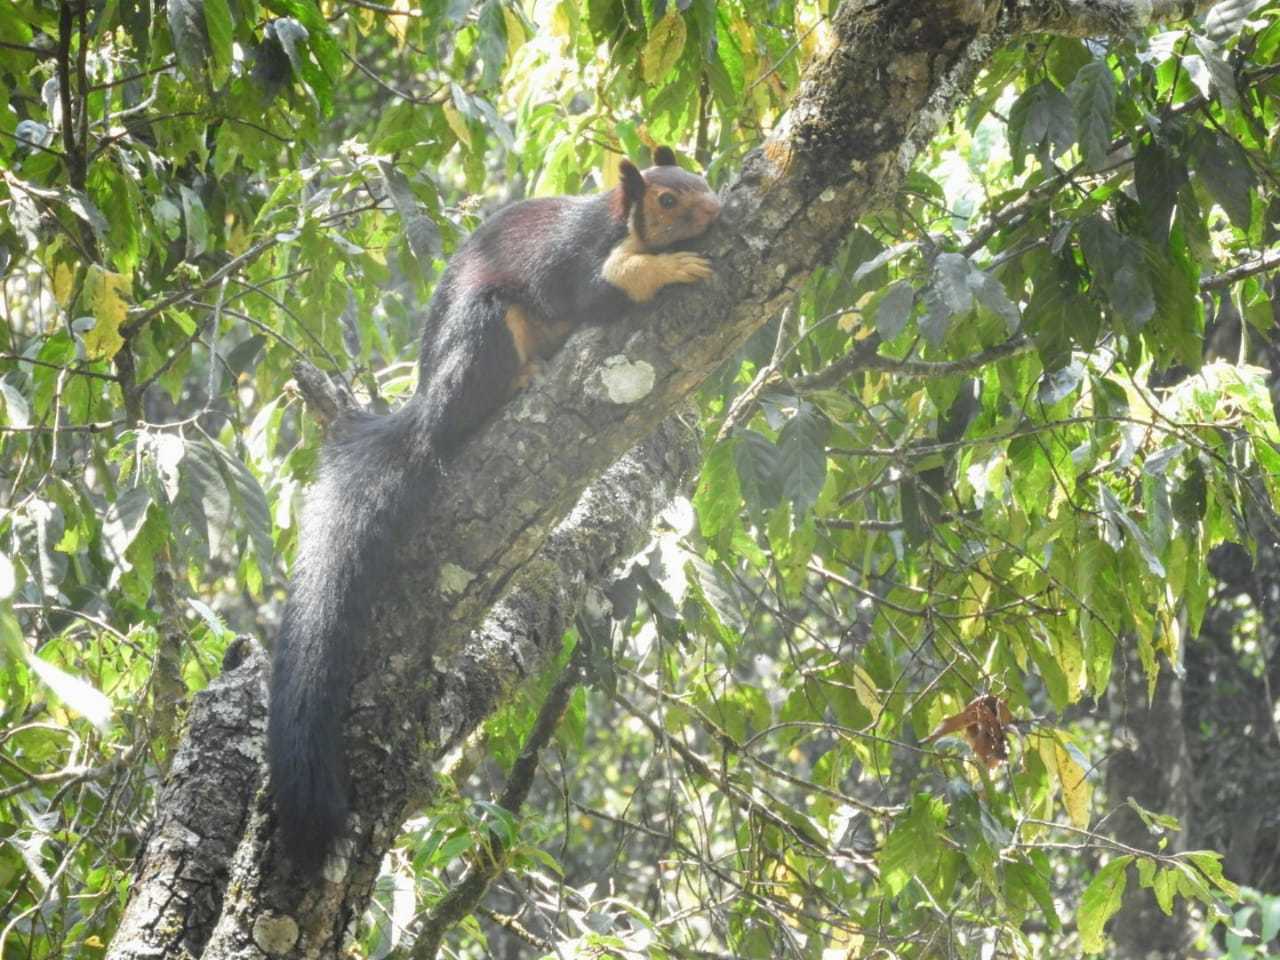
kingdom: Animalia
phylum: Chordata
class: Mammalia
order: Rodentia
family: Sciuridae
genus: Ratufa
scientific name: Ratufa indica
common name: Indian giant squirrel
